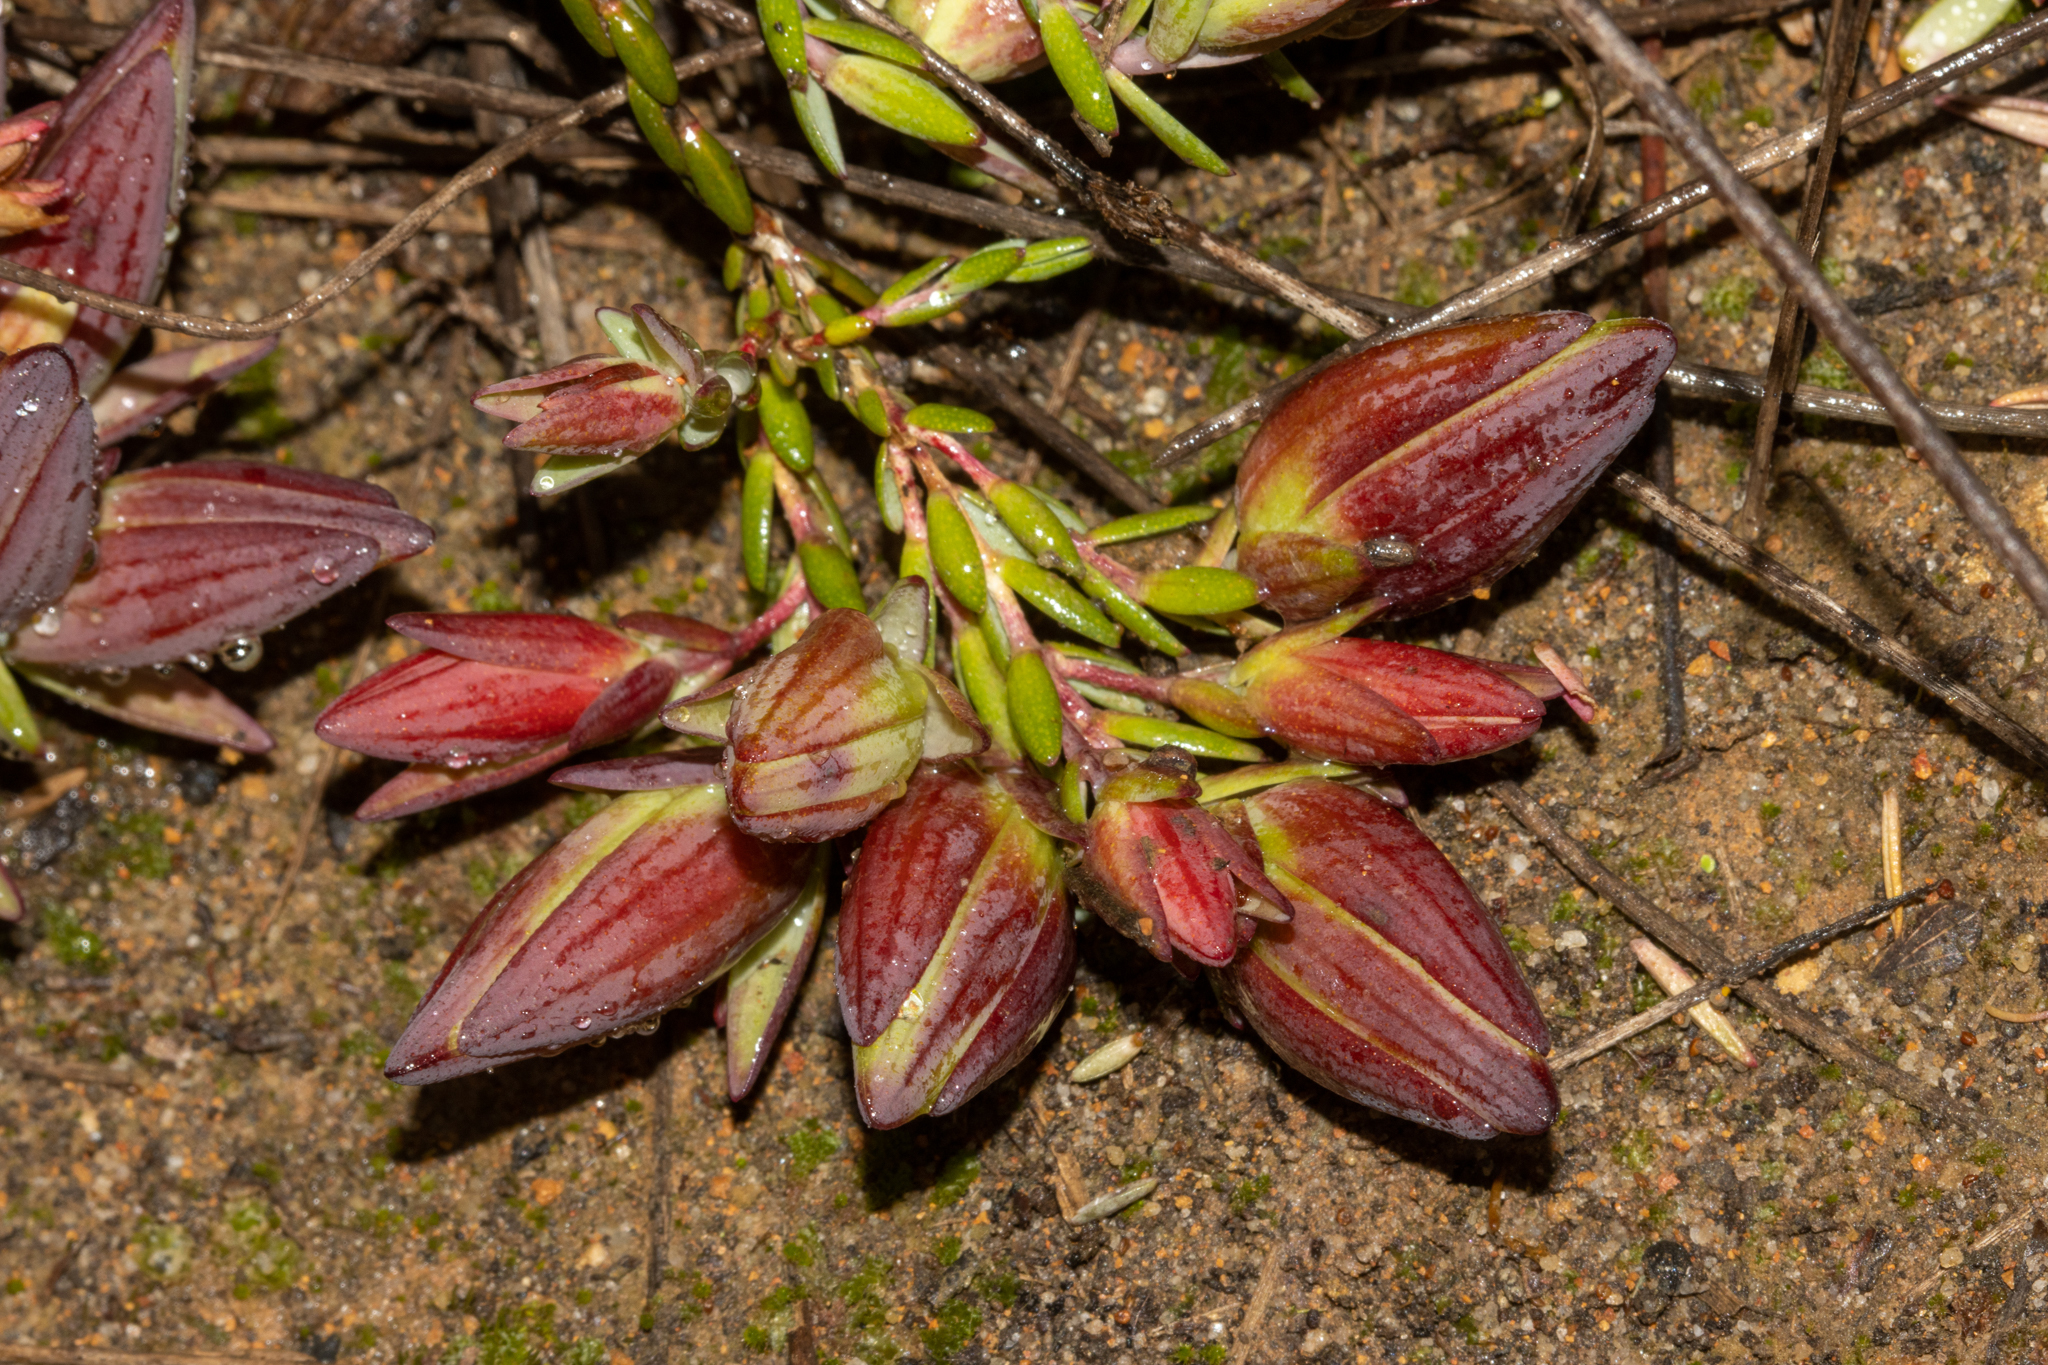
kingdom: Plantae
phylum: Tracheophyta
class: Magnoliopsida
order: Myrtales
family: Myrtaceae
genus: Darwinia
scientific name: Darwinia speciosa
